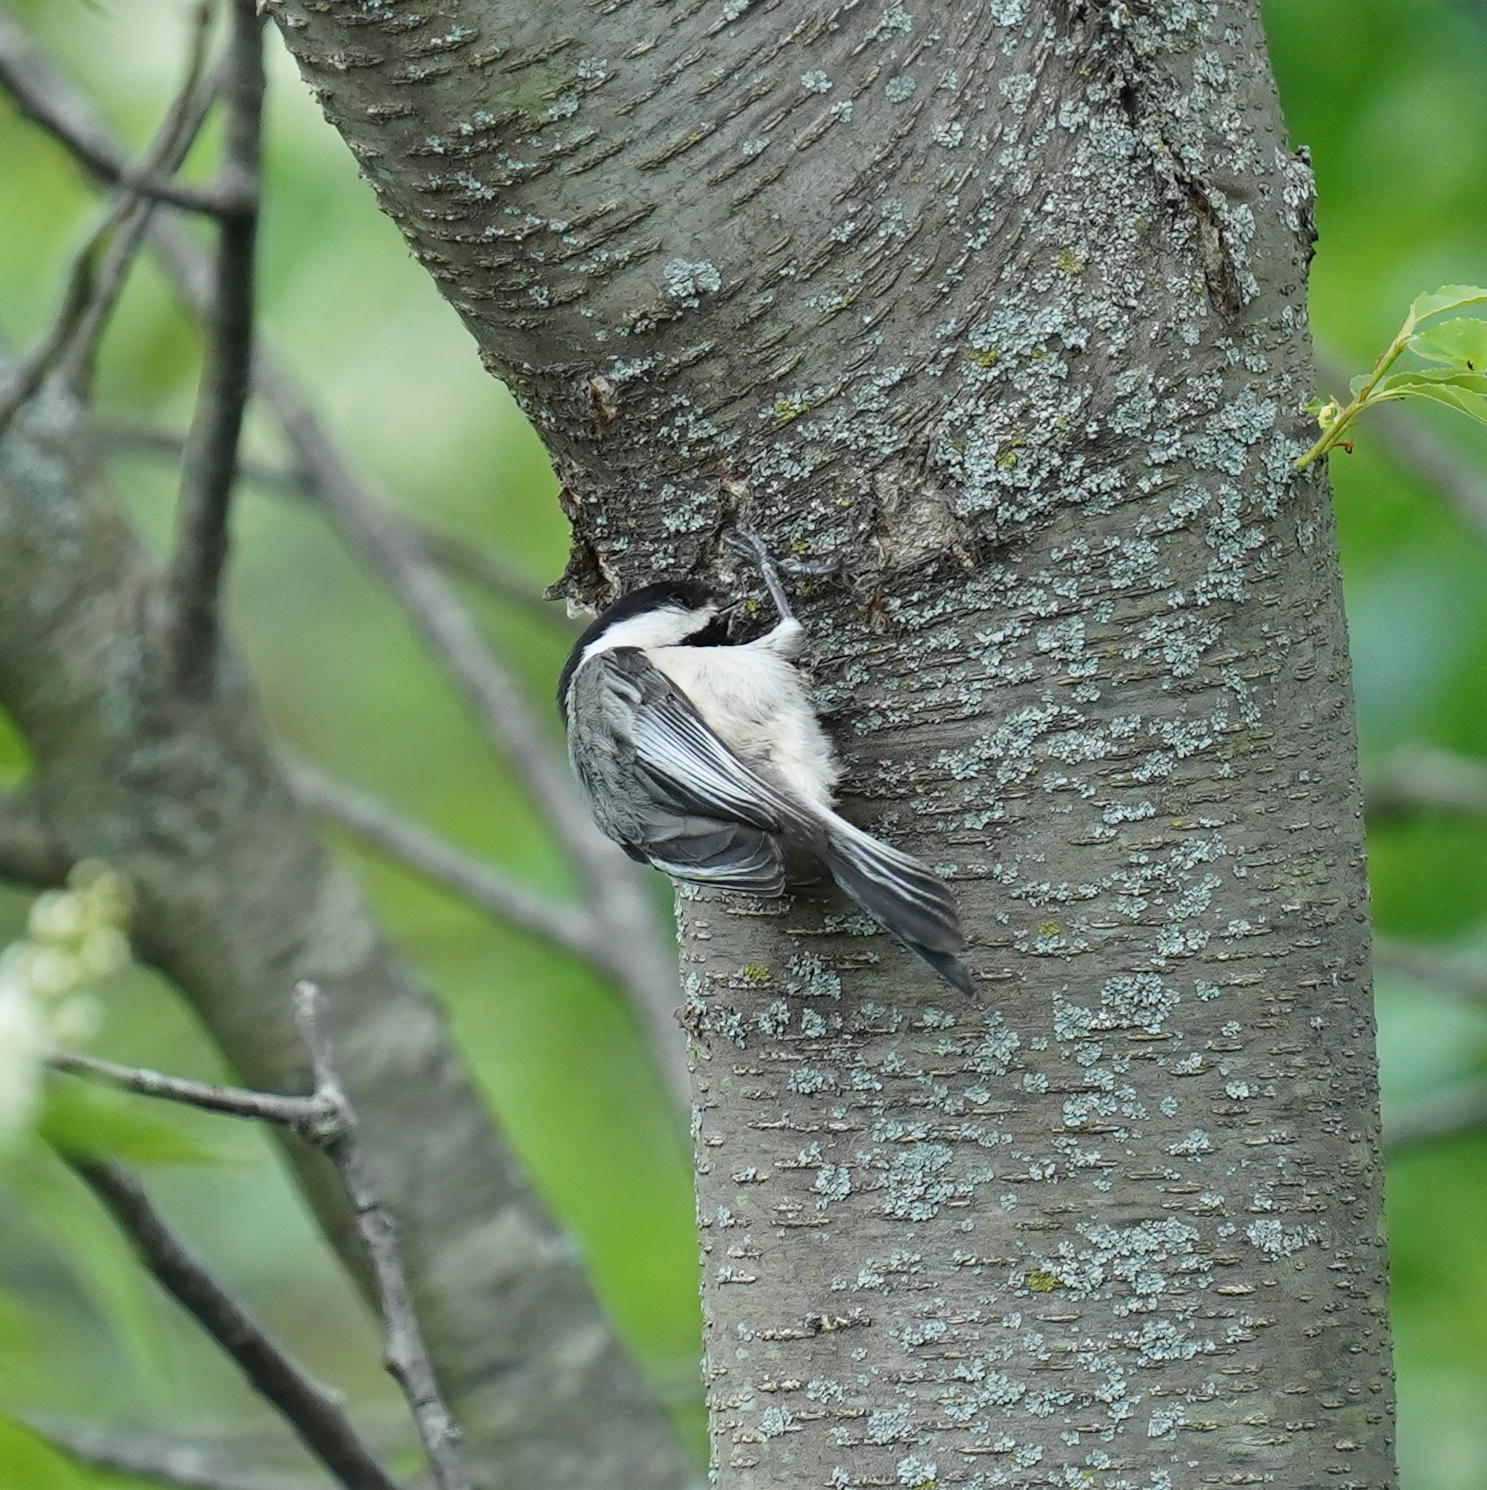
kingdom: Animalia
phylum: Chordata
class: Aves
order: Passeriformes
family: Paridae
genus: Poecile
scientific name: Poecile atricapillus
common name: Black-capped chickadee
